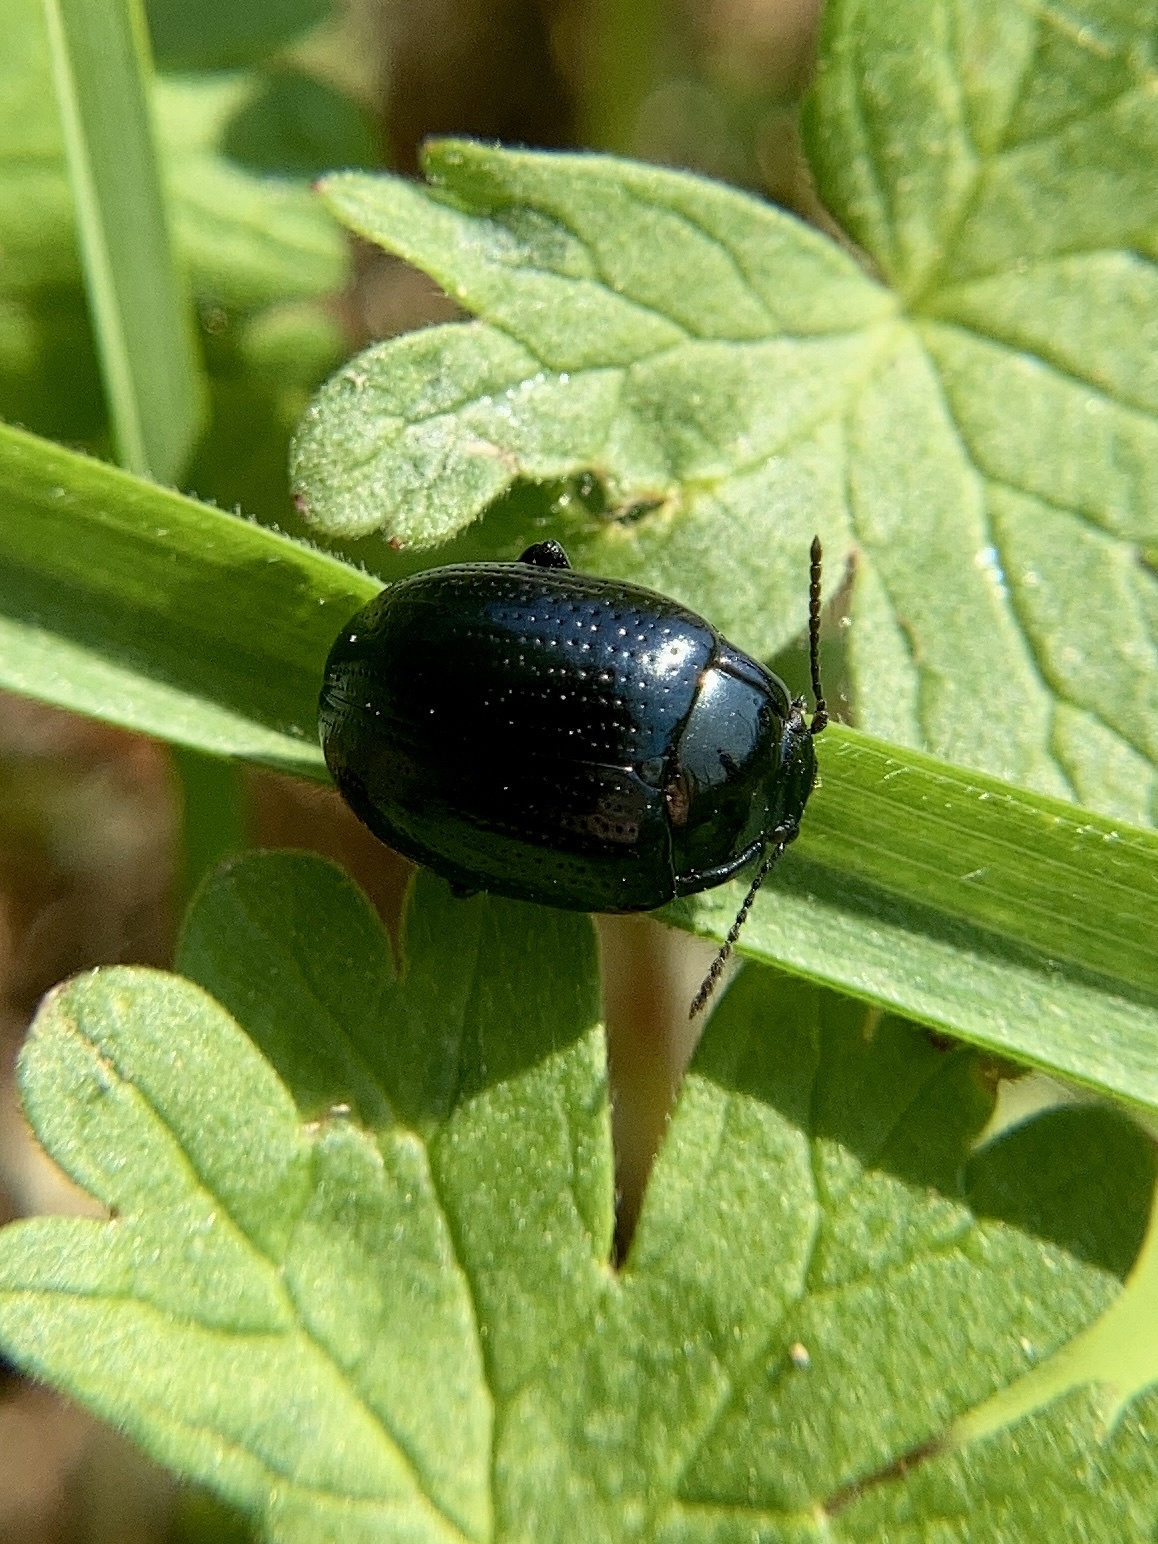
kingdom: Animalia
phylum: Arthropoda
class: Insecta
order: Coleoptera
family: Chrysomelidae
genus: Chrysolina
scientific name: Chrysolina oricalcia
